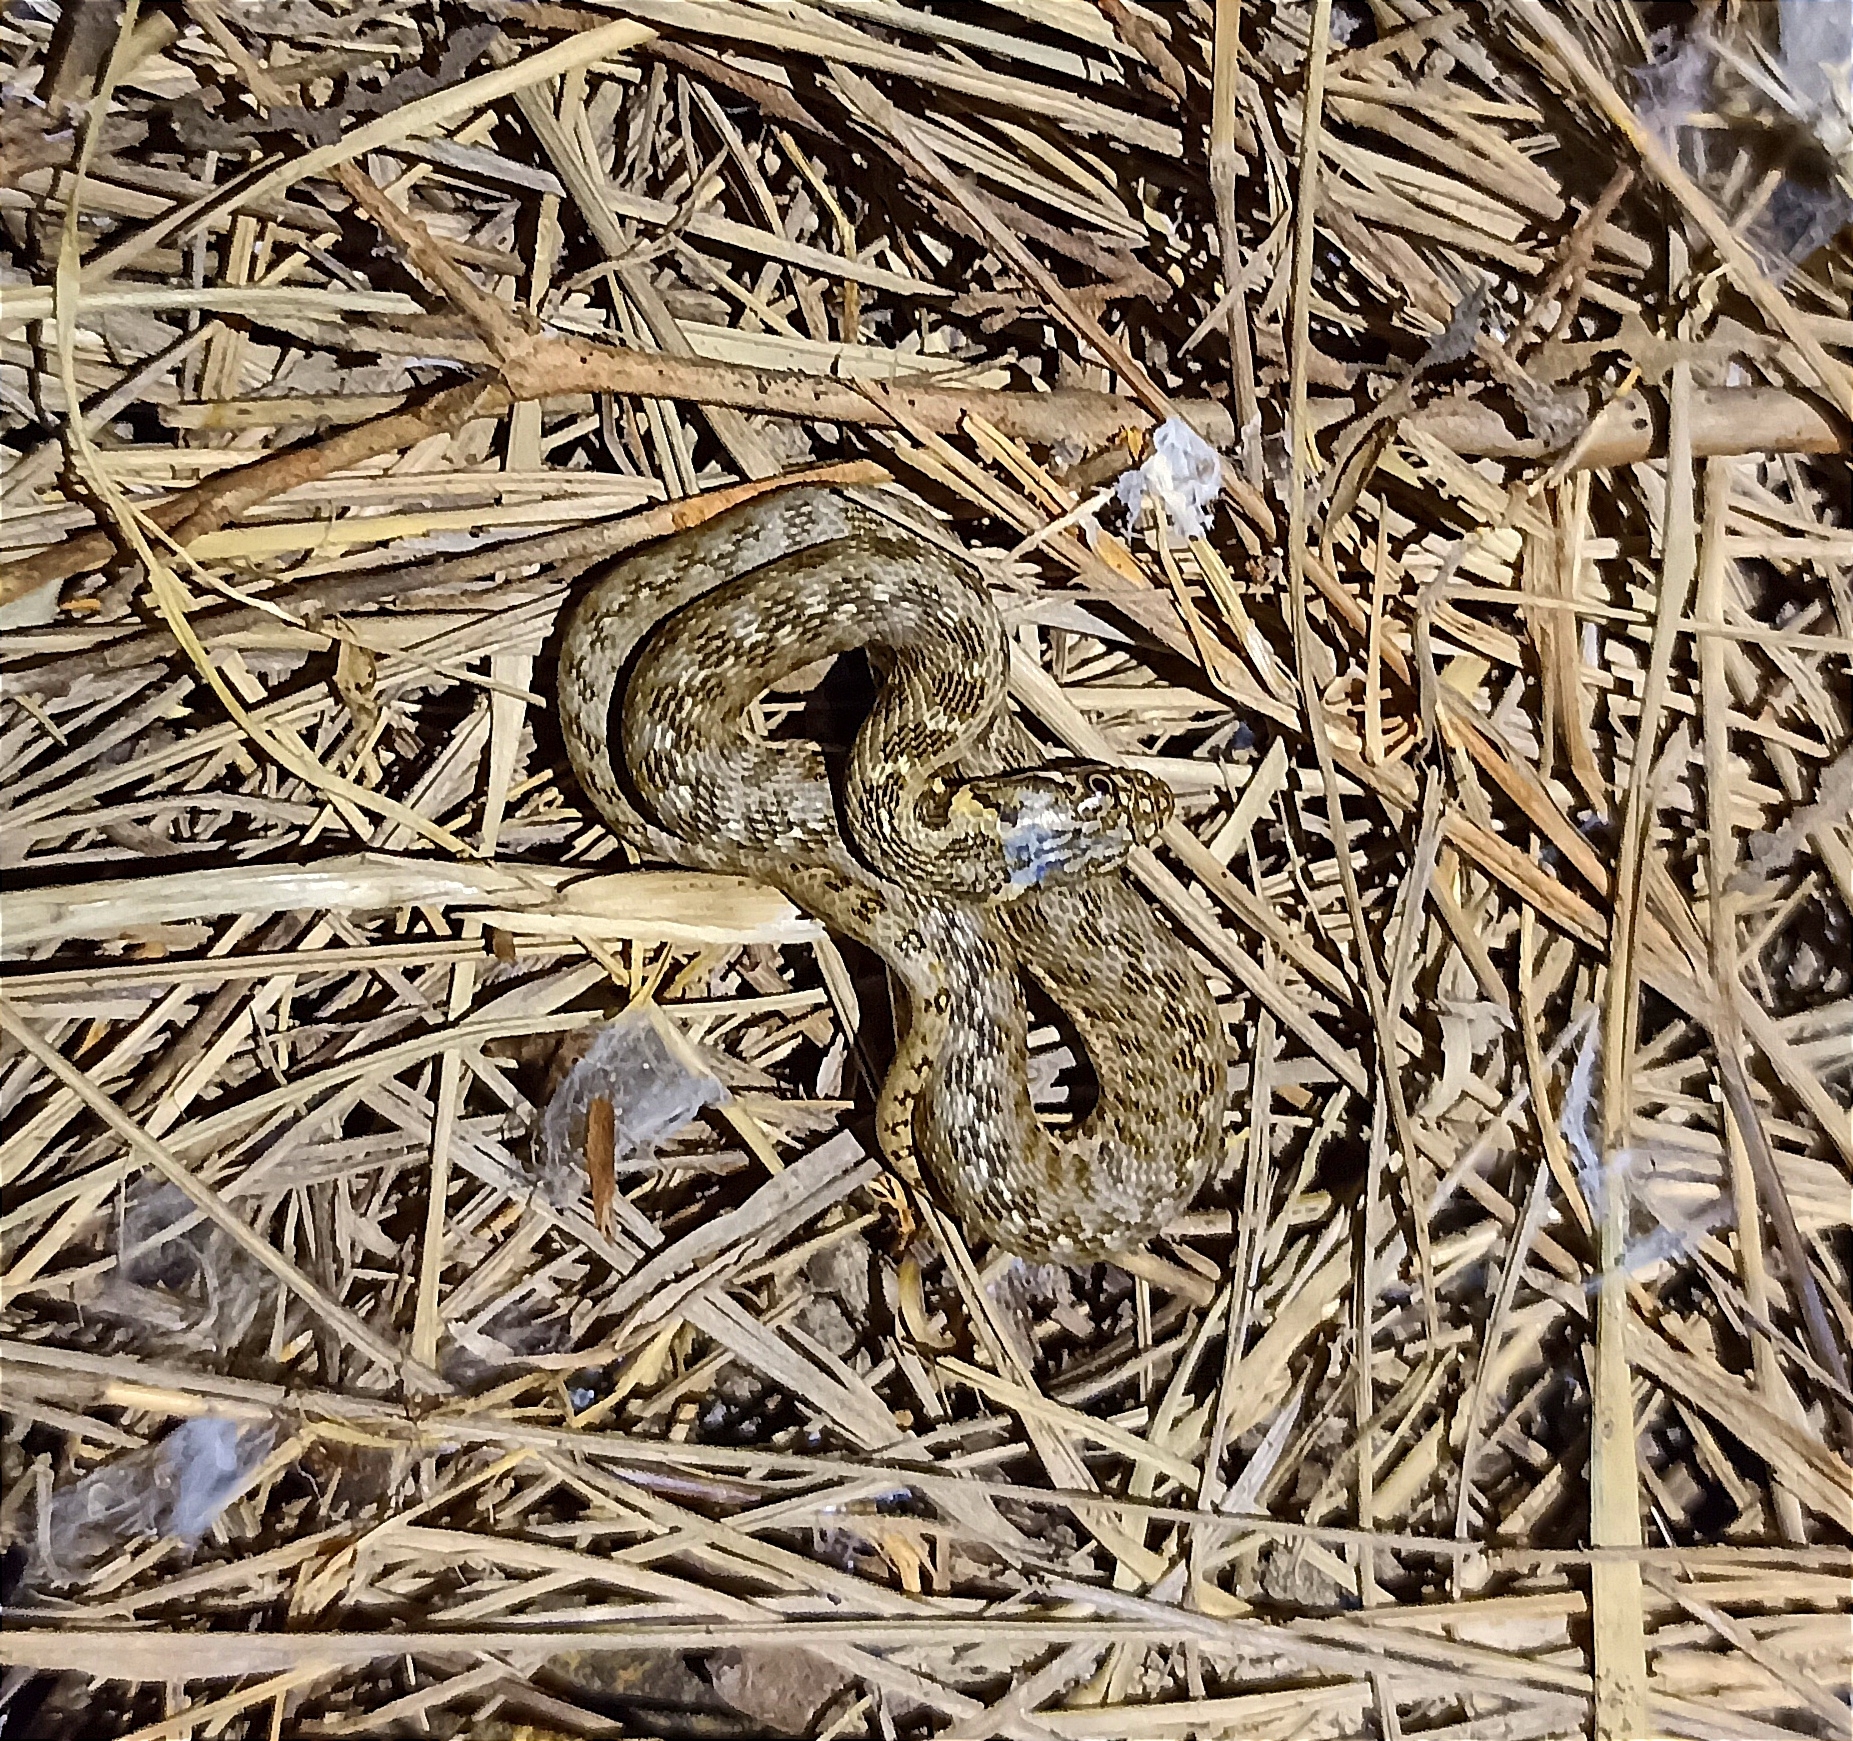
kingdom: Animalia
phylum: Chordata
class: Squamata
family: Colubridae
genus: Natrix
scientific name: Natrix maura
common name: Viperine water snake
